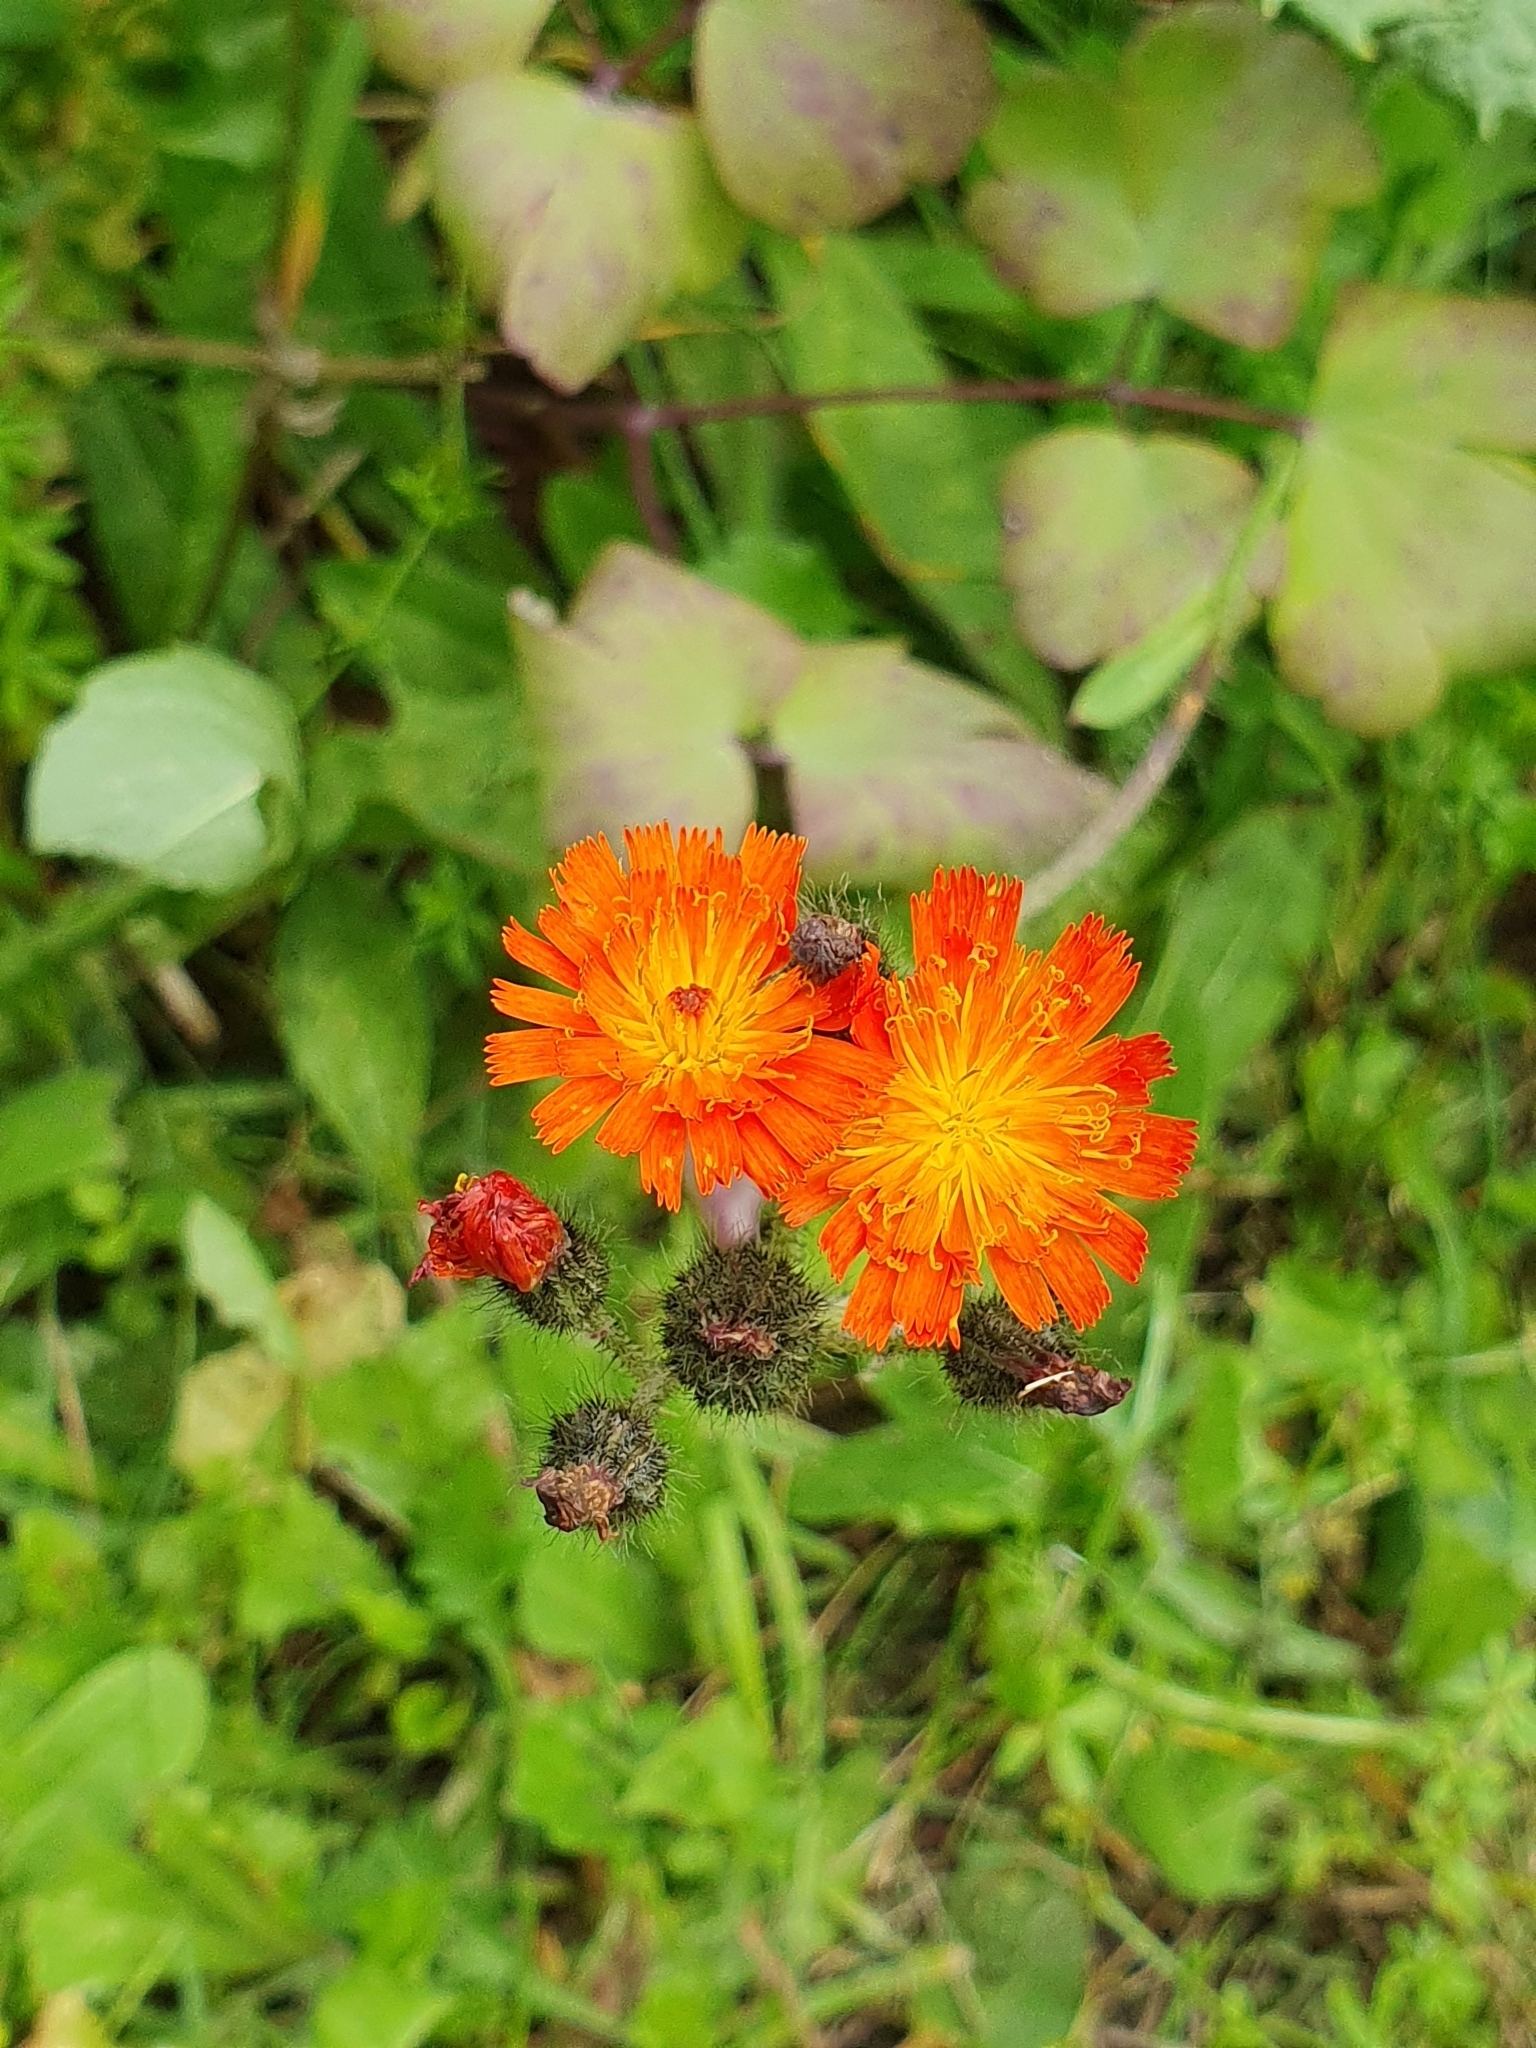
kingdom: Plantae
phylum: Tracheophyta
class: Magnoliopsida
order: Asterales
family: Asteraceae
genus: Pilosella
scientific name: Pilosella aurantiaca
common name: Fox-and-cubs
